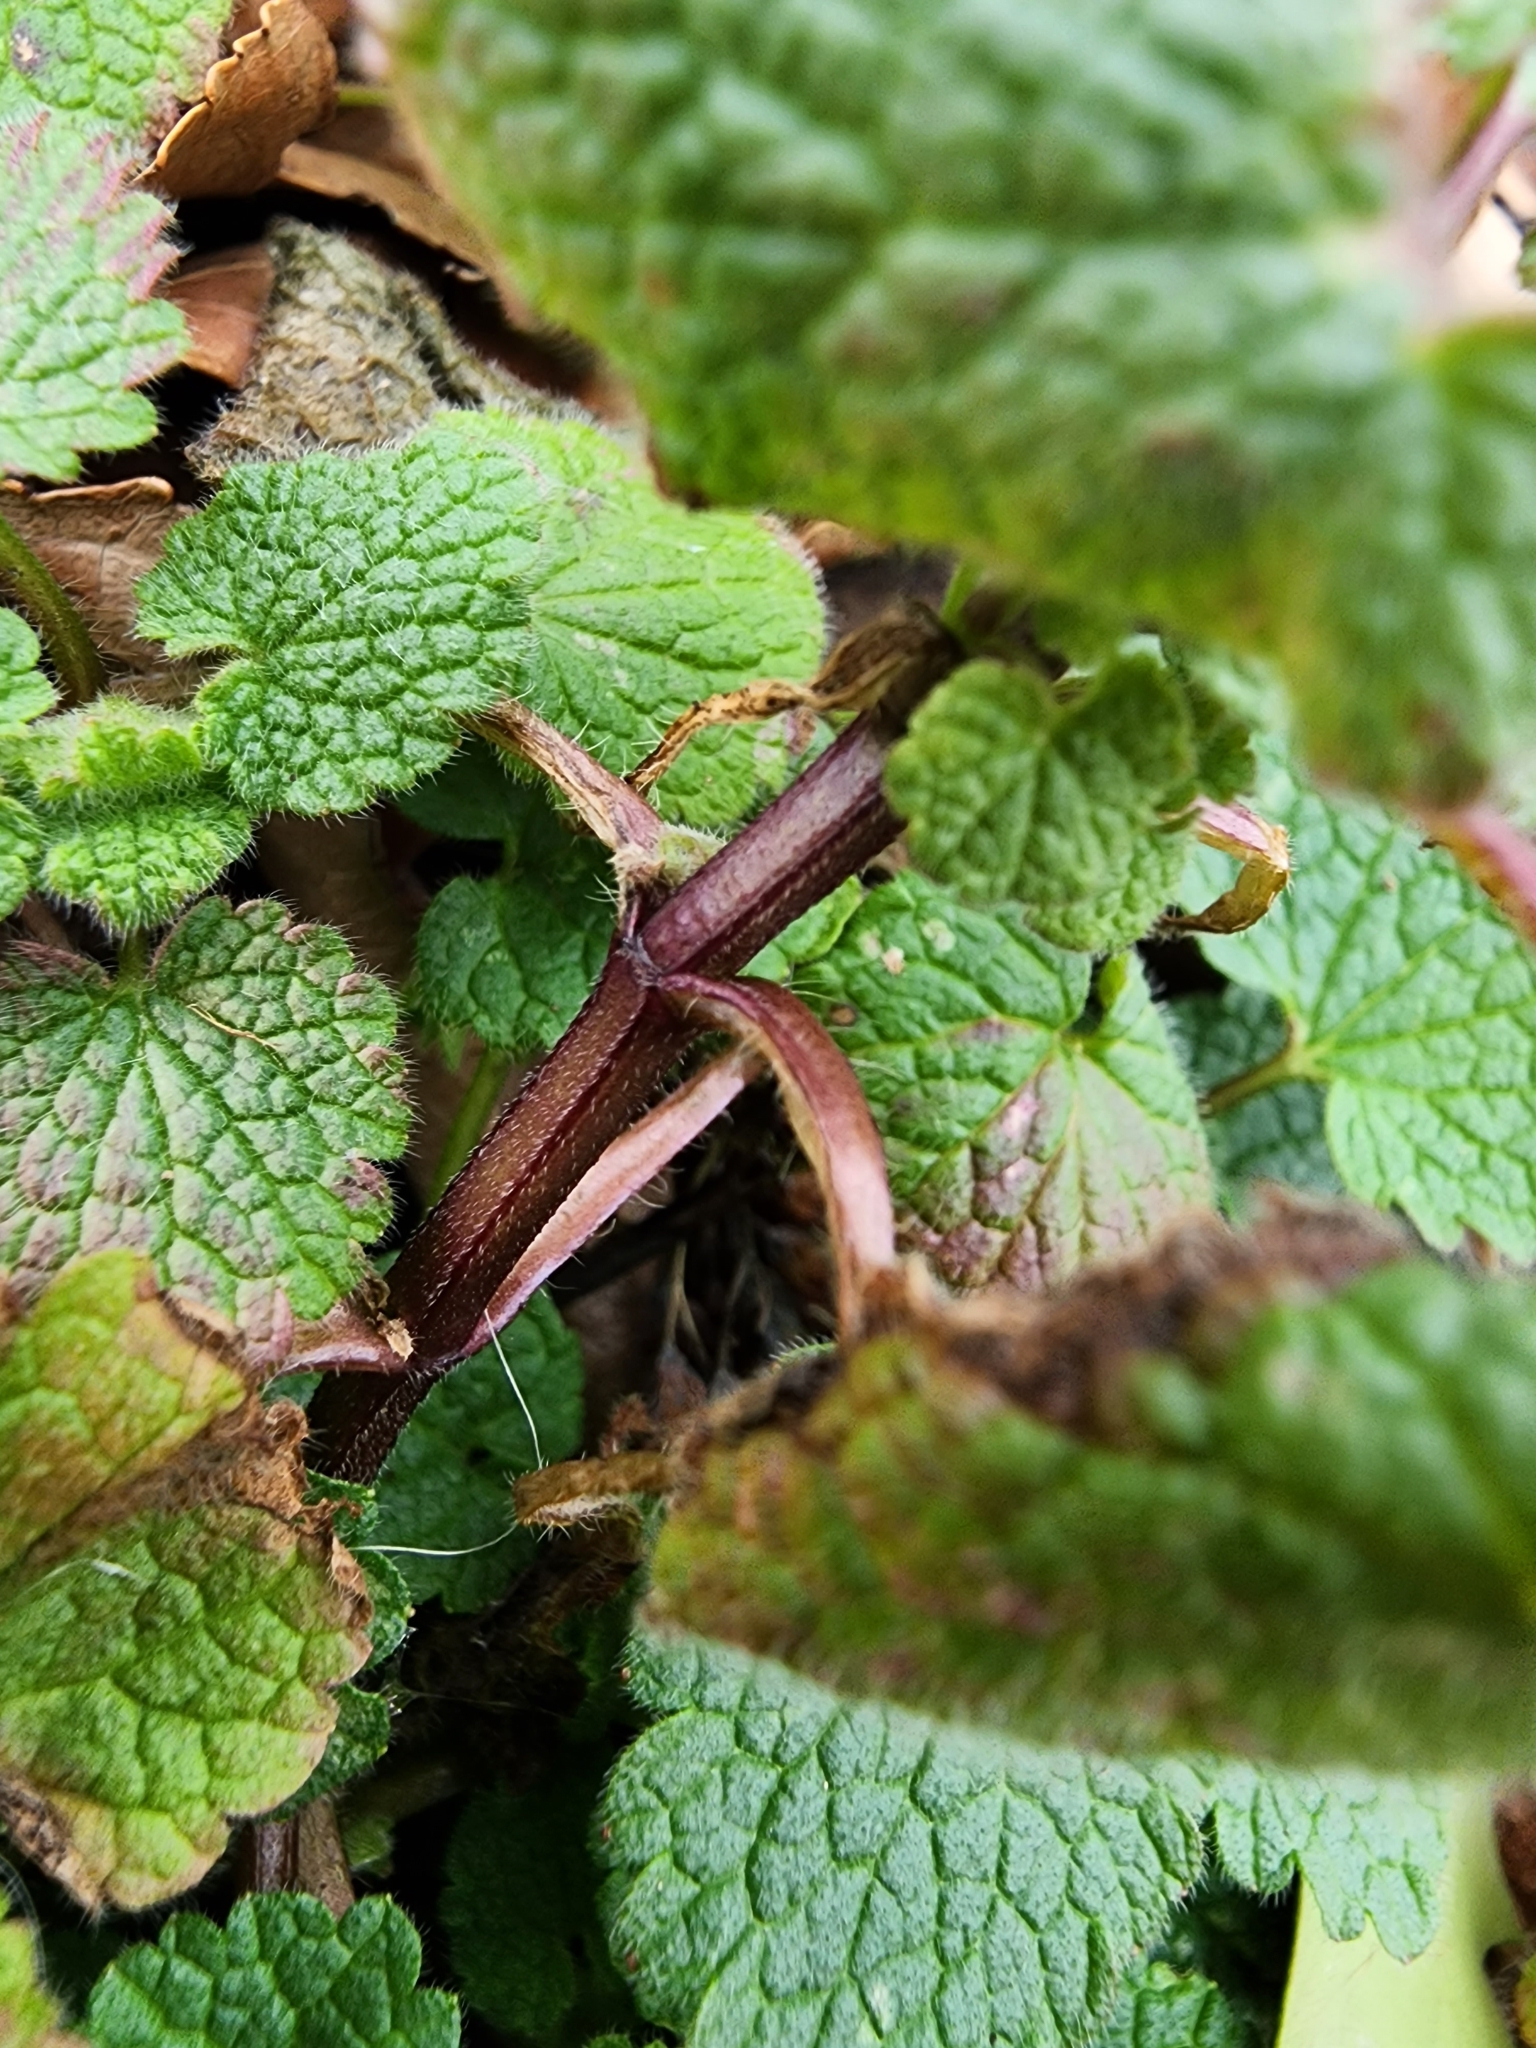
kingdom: Plantae
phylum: Tracheophyta
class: Magnoliopsida
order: Lamiales
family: Lamiaceae
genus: Lamium
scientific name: Lamium purpureum
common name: Red dead-nettle
